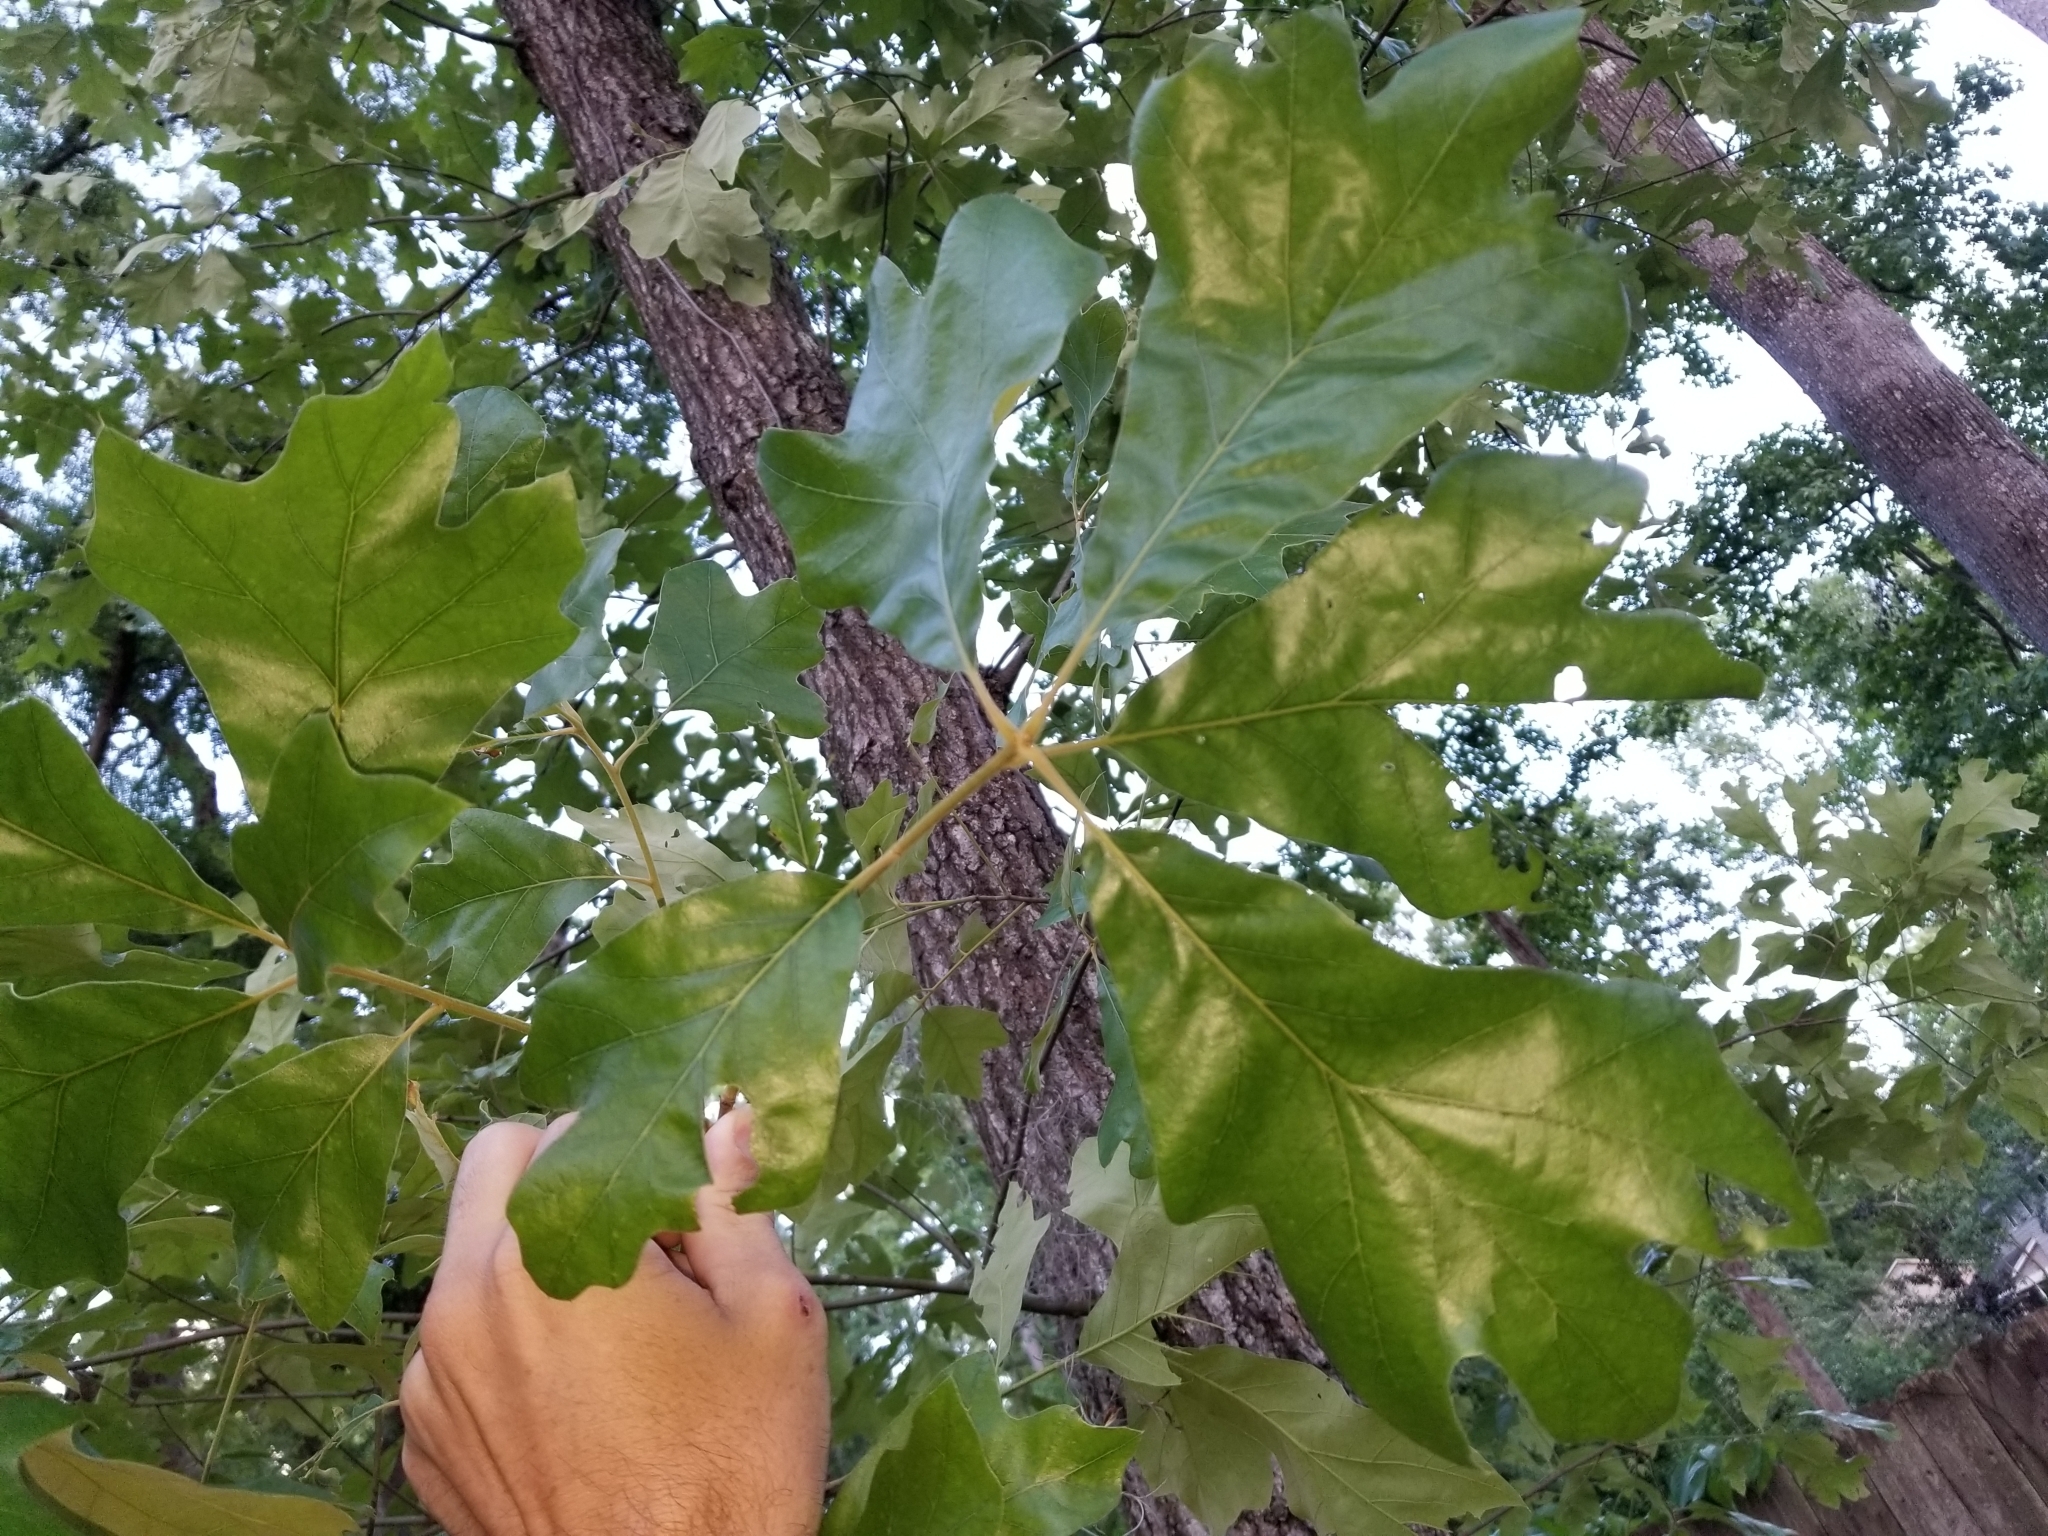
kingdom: Plantae
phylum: Tracheophyta
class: Magnoliopsida
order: Fagales
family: Fagaceae
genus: Quercus
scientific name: Quercus falcata
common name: Southern red oak
